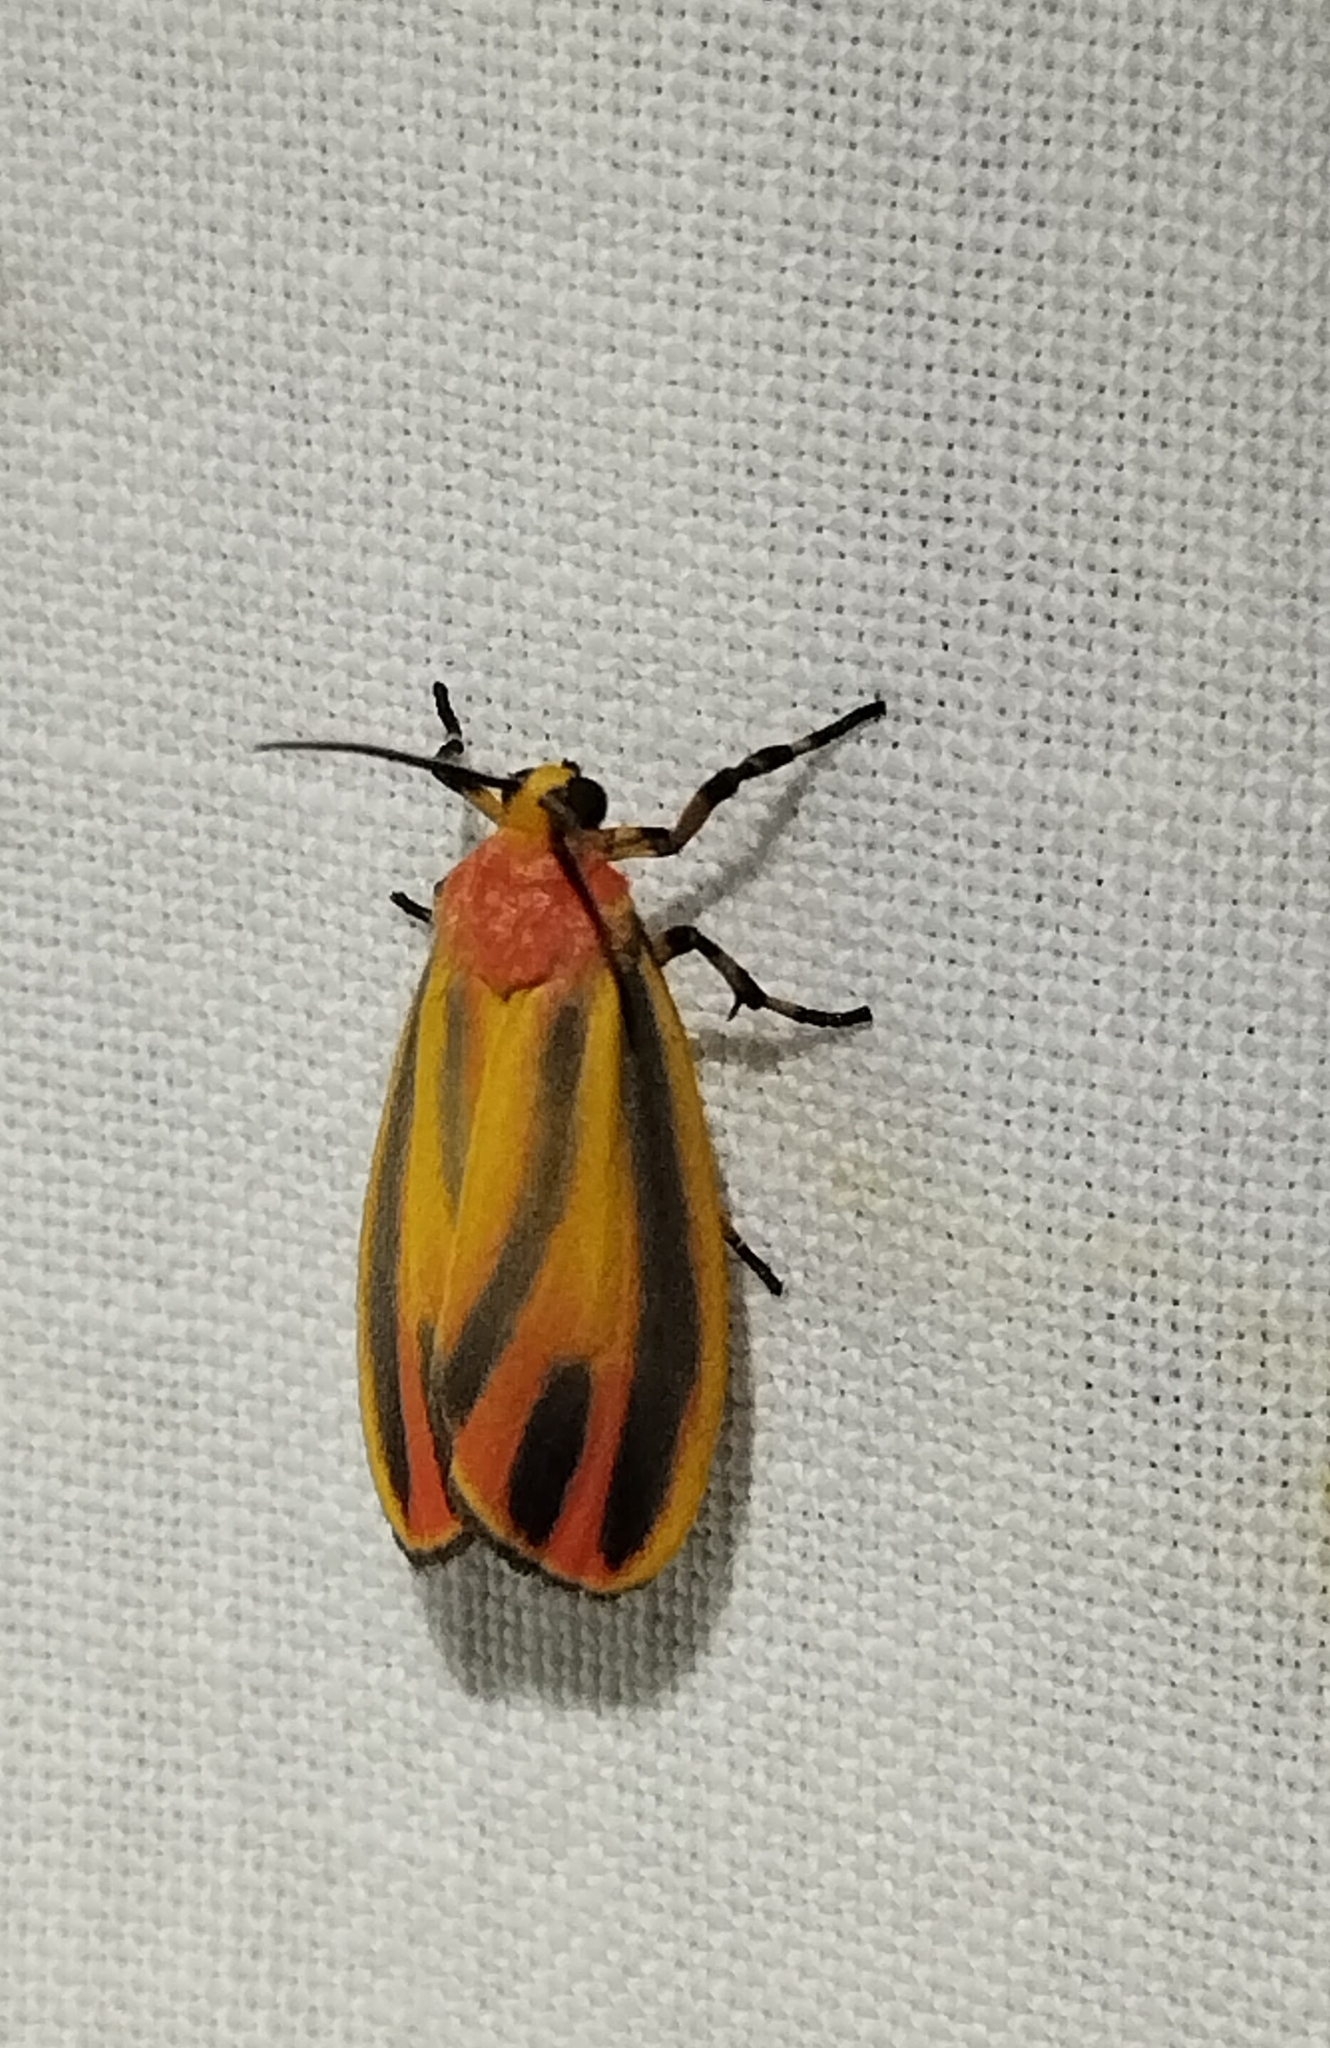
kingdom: Animalia
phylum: Arthropoda
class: Insecta
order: Lepidoptera
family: Erebidae
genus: Hypoprepia
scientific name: Hypoprepia fucosa
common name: Painted lichen moth
